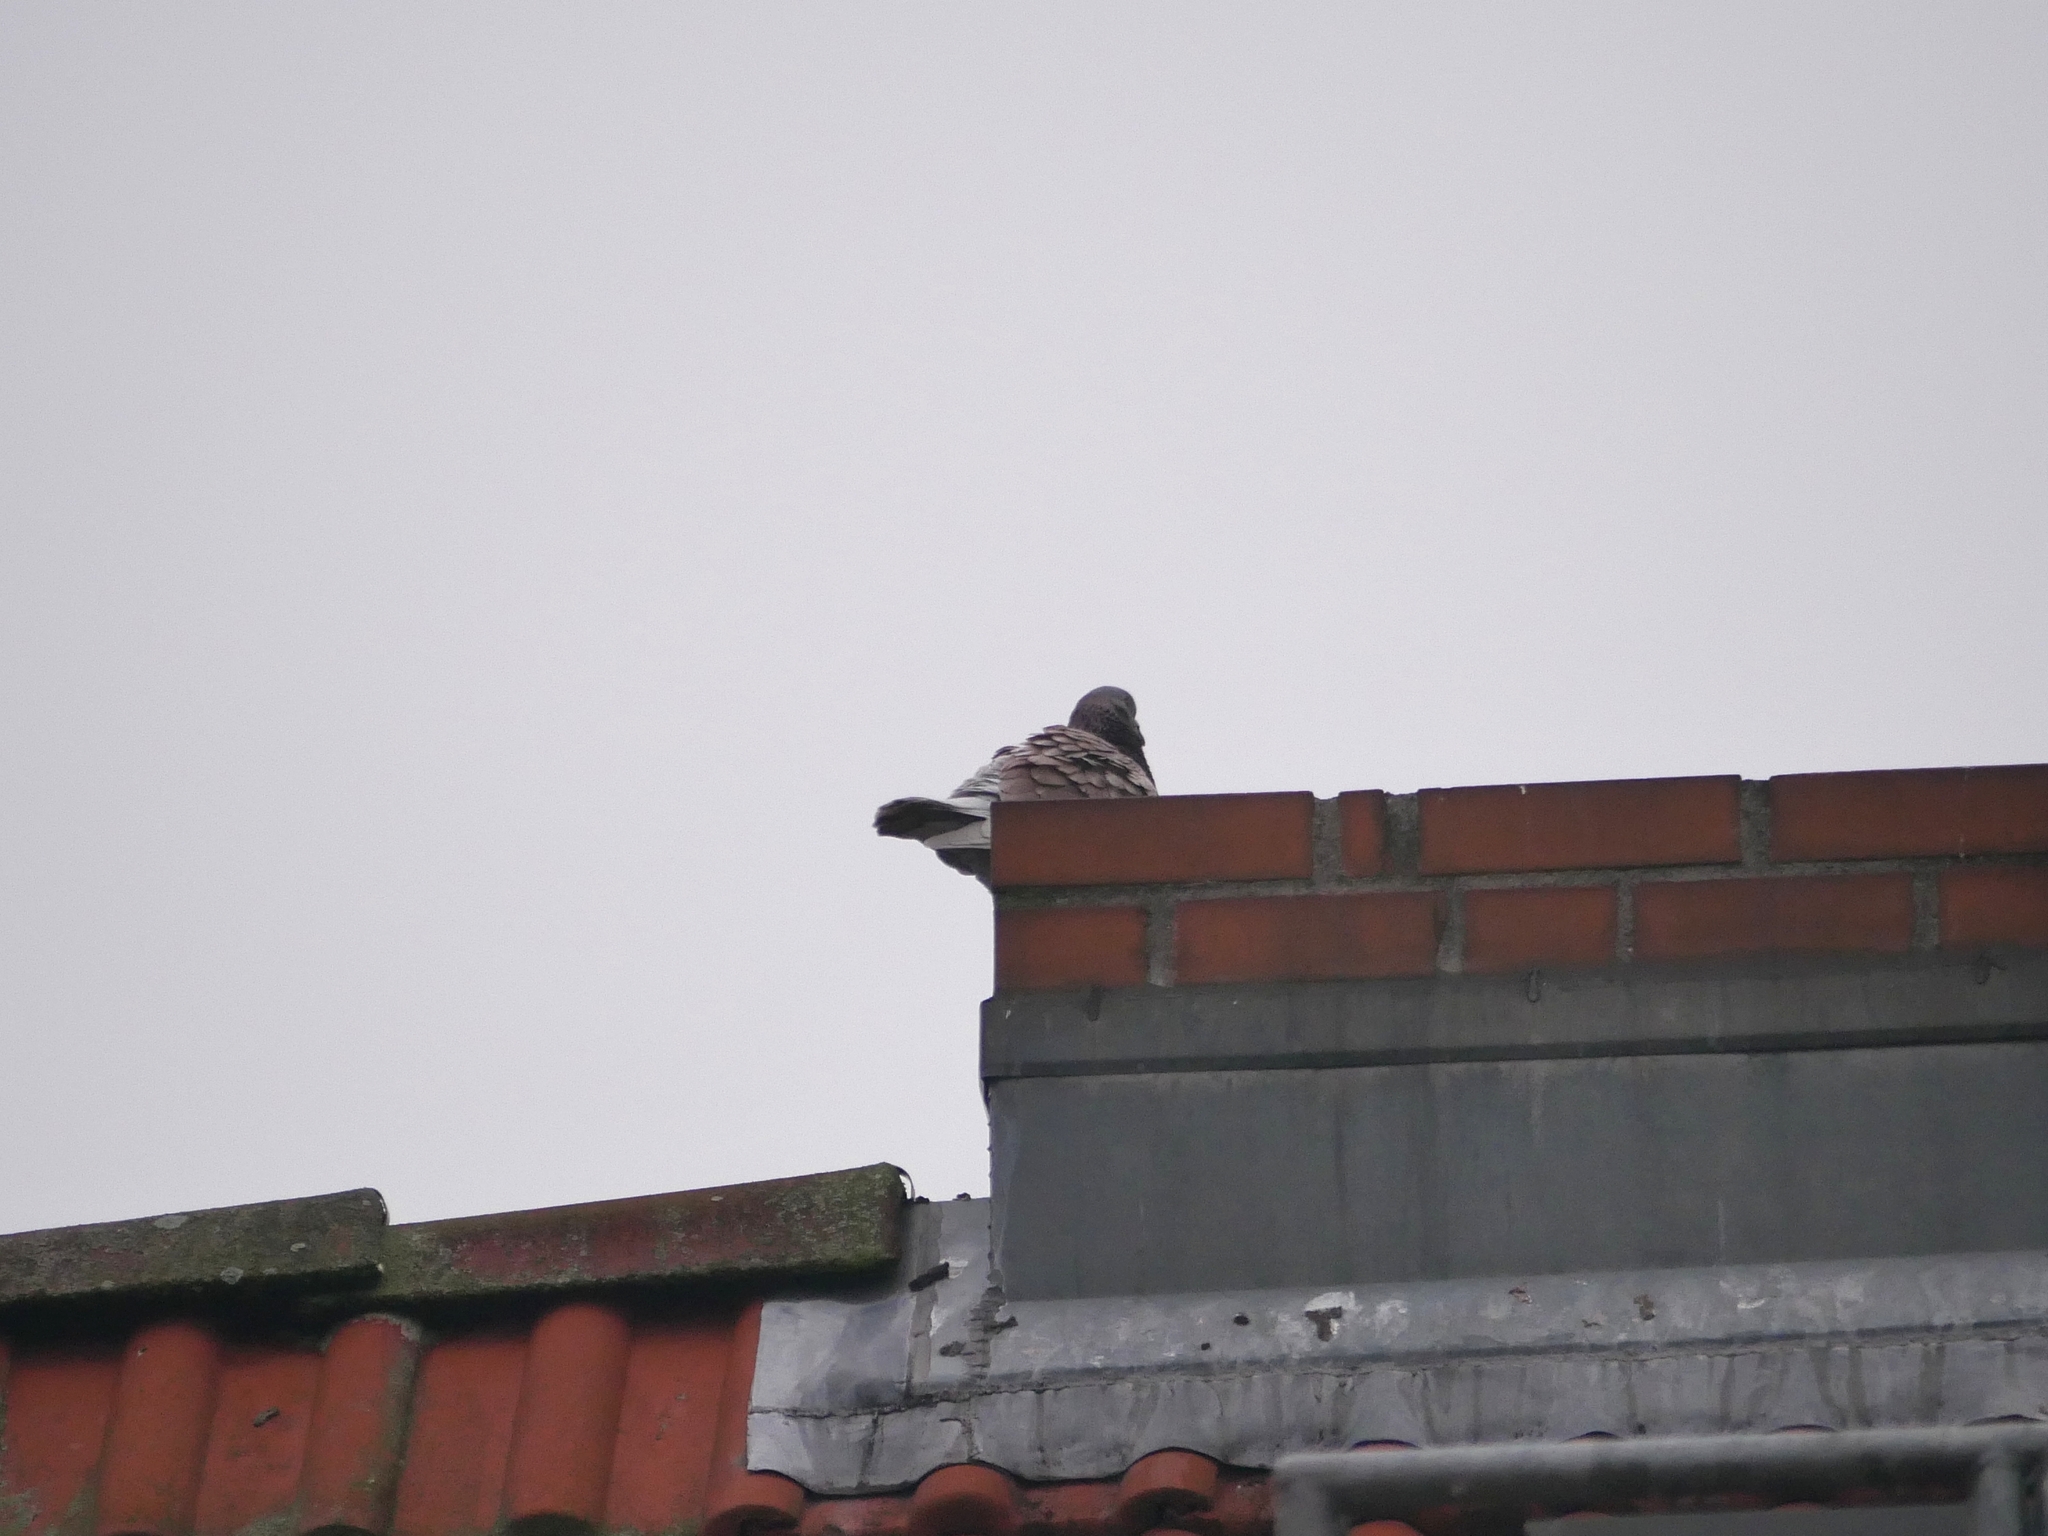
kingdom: Animalia
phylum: Chordata
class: Aves
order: Columbiformes
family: Columbidae
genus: Columba
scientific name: Columba livia
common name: Rock pigeon
